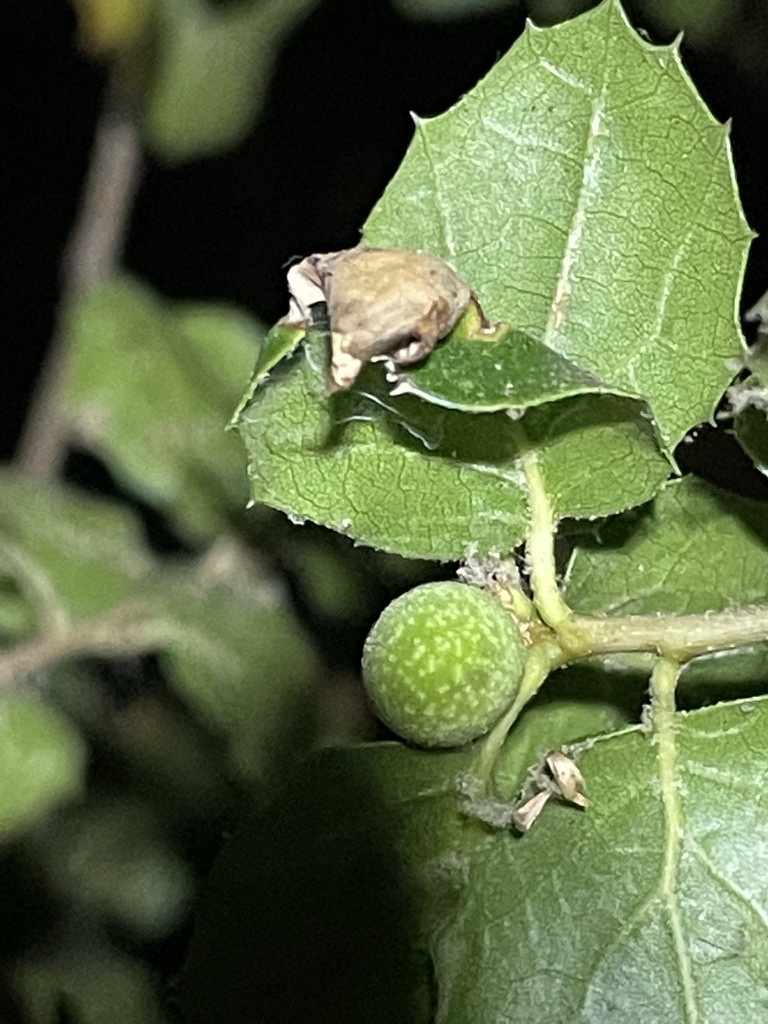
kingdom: Animalia
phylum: Arthropoda
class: Insecta
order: Hymenoptera
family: Cynipidae
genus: Callirhytis
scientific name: Callirhytis
